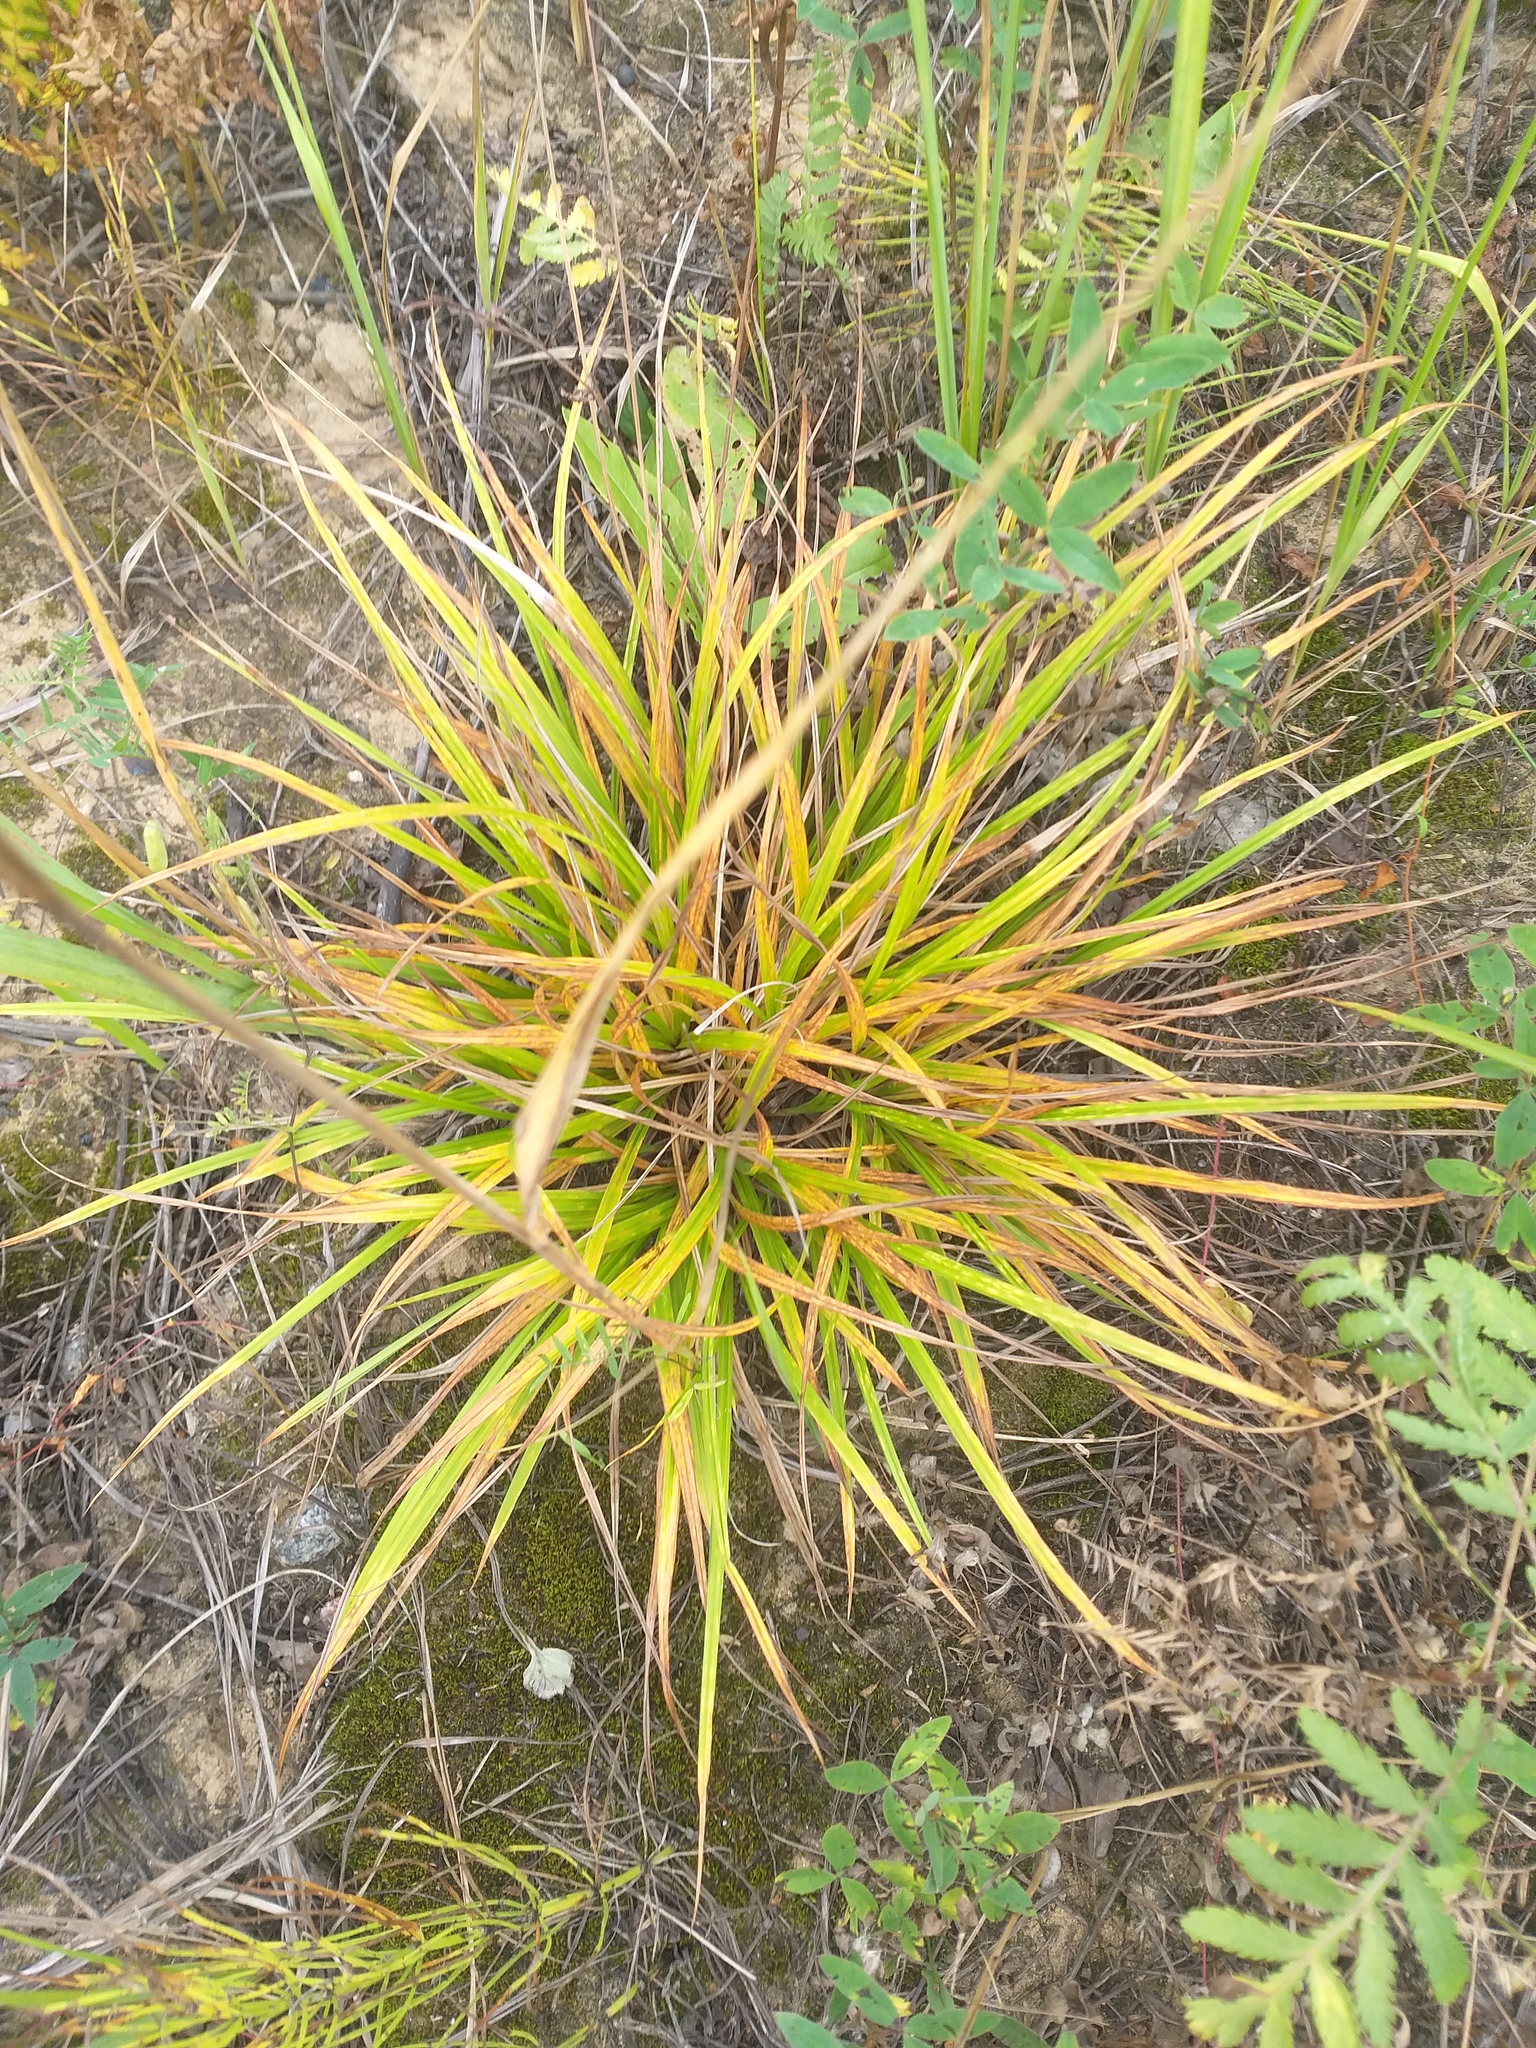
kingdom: Plantae
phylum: Tracheophyta
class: Liliopsida
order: Poales
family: Cyperaceae
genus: Carex
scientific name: Carex pallescens
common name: Pale sedge
